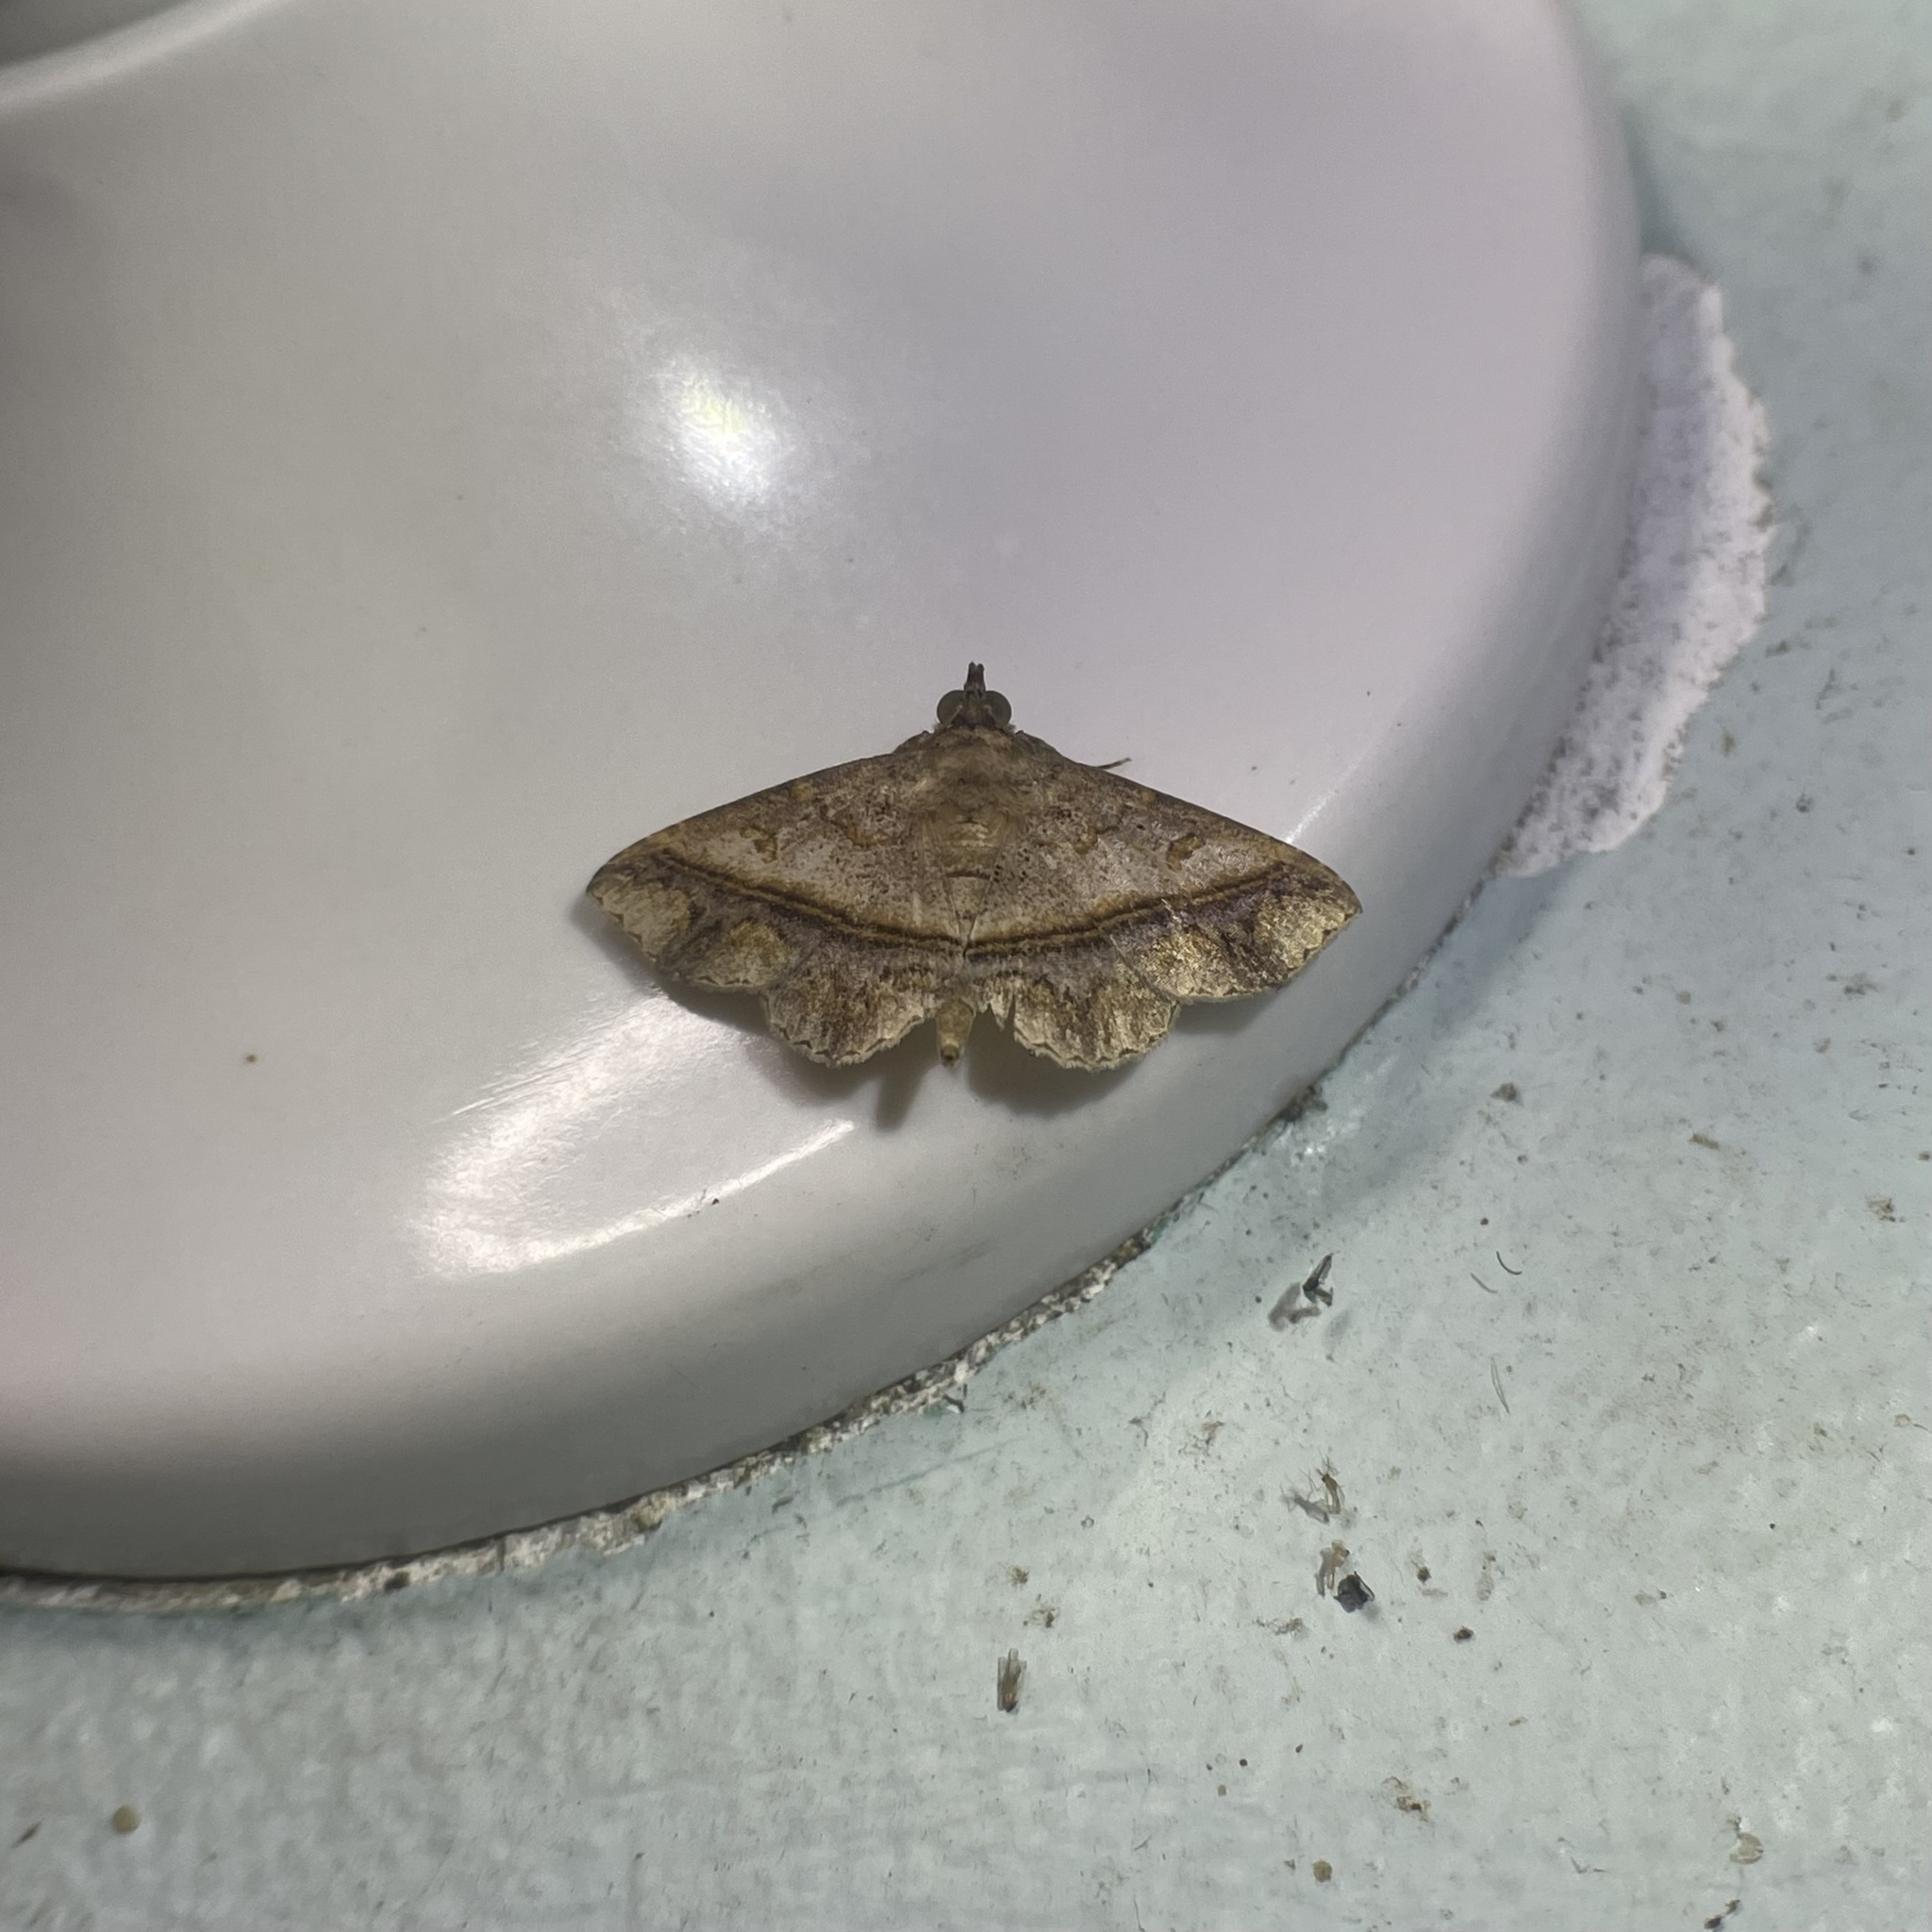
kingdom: Animalia
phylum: Arthropoda
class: Insecta
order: Lepidoptera
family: Erebidae
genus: Antiblemma
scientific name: Antiblemma acclinalis
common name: Moth
